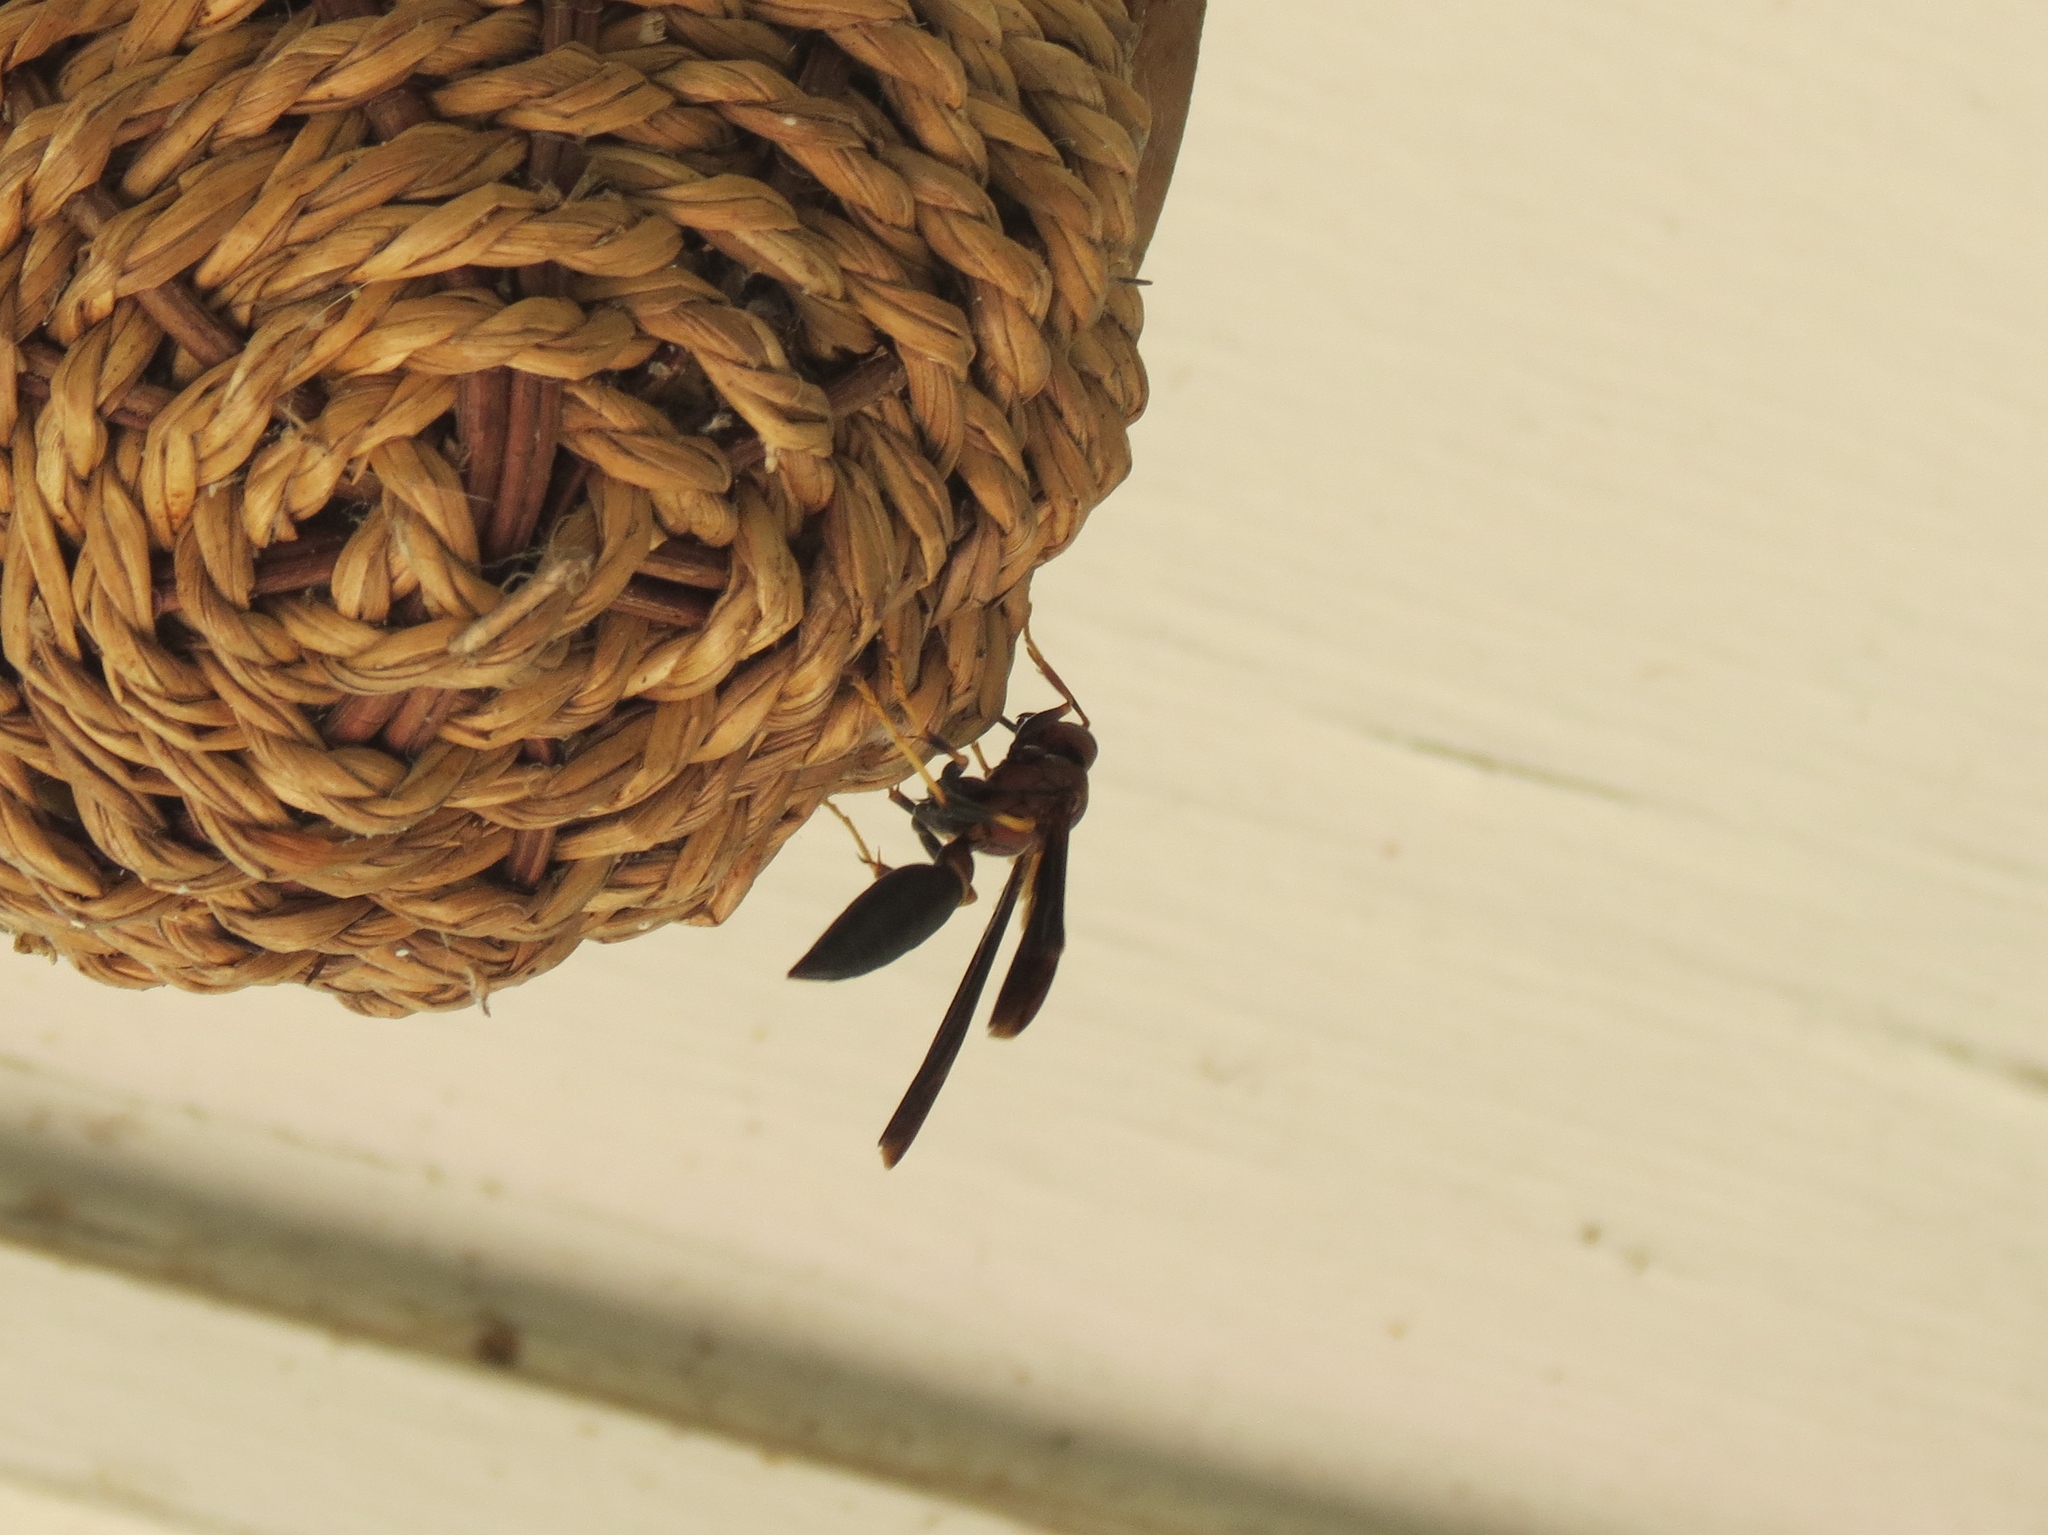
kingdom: Animalia
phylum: Arthropoda
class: Insecta
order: Hymenoptera
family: Eumenidae
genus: Polistes
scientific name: Polistes annularis
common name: Ringed paper wasp
